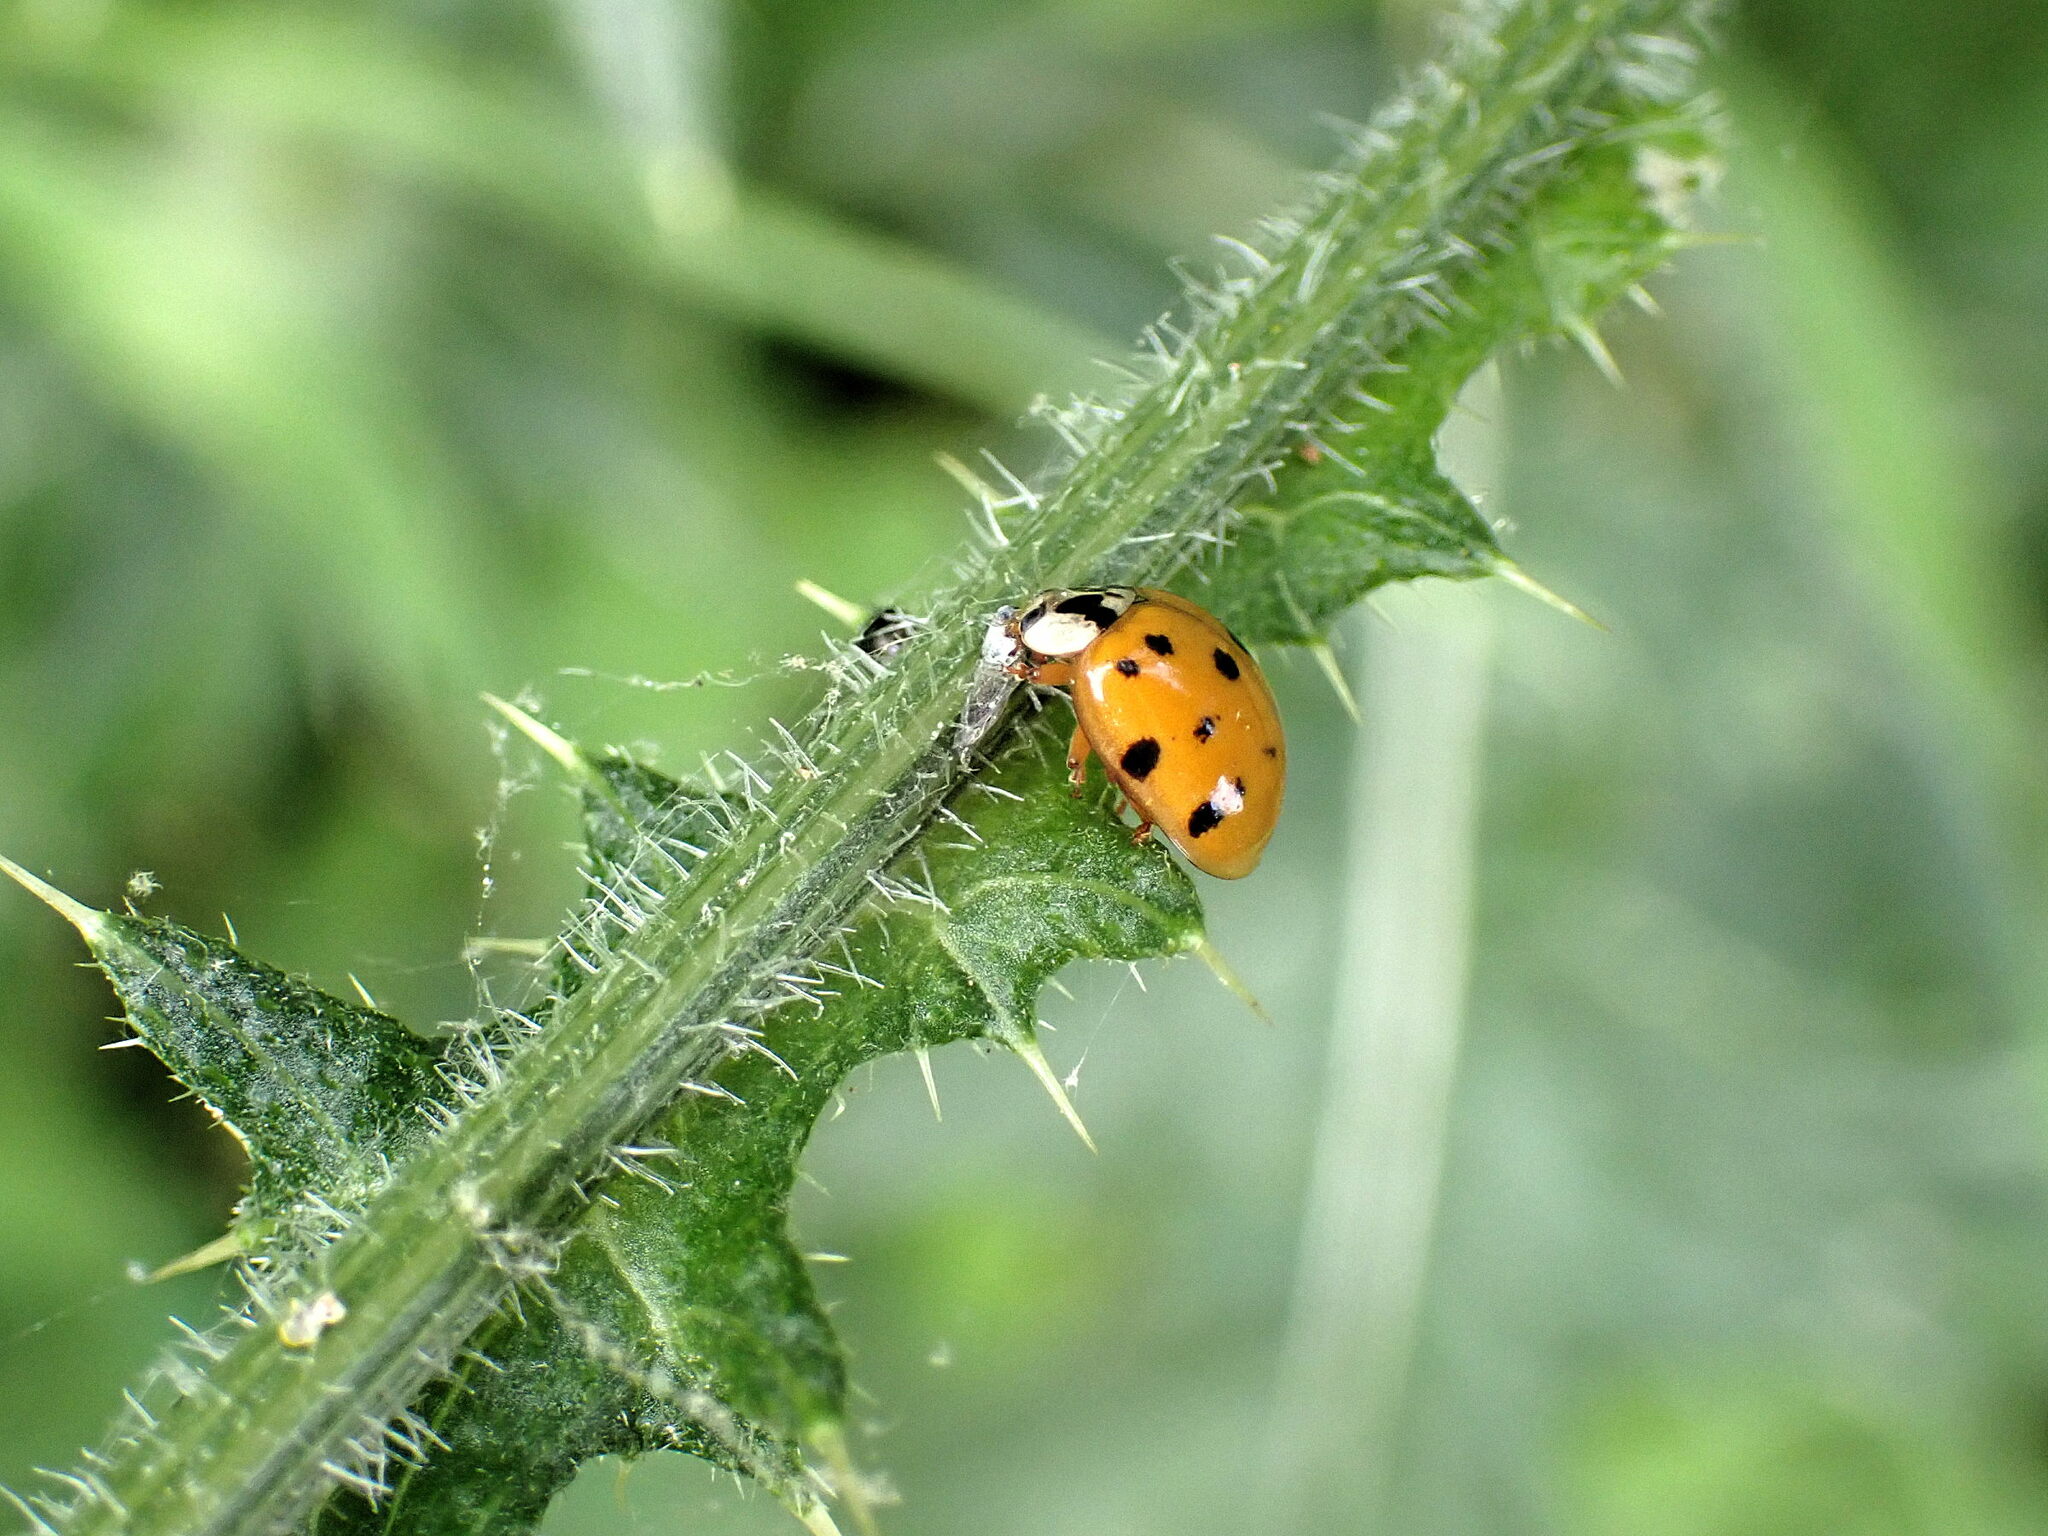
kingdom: Animalia
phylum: Arthropoda
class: Insecta
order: Coleoptera
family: Coccinellidae
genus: Harmonia
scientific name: Harmonia axyridis
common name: Harlequin ladybird
